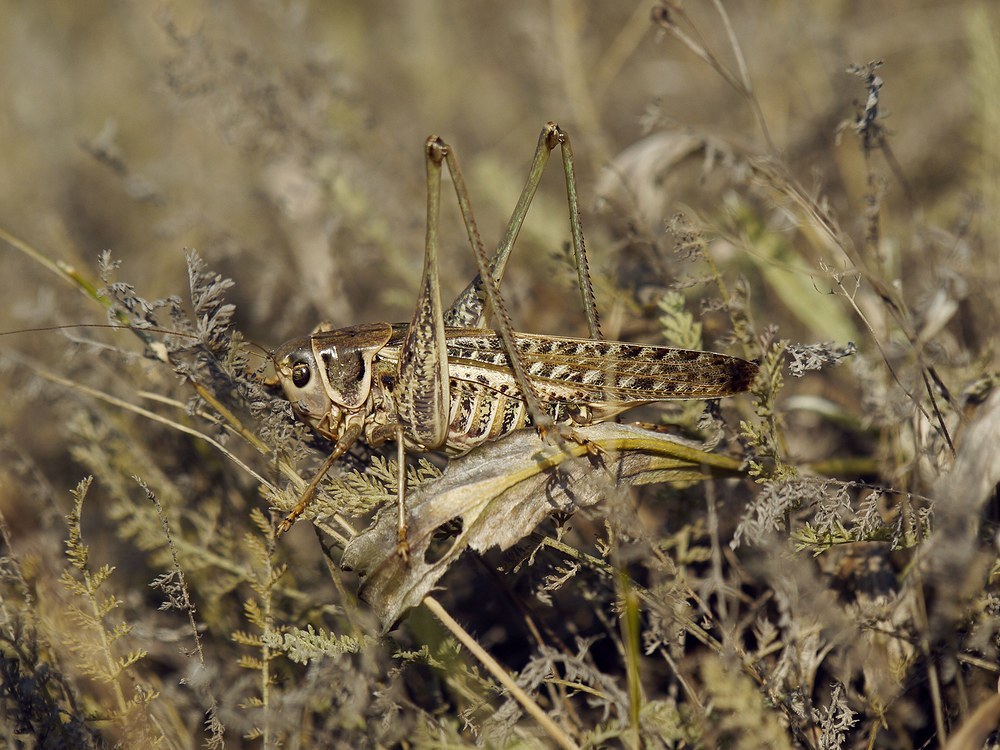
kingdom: Animalia
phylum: Arthropoda
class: Insecta
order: Orthoptera
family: Tettigoniidae
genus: Decticus
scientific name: Decticus albifrons
